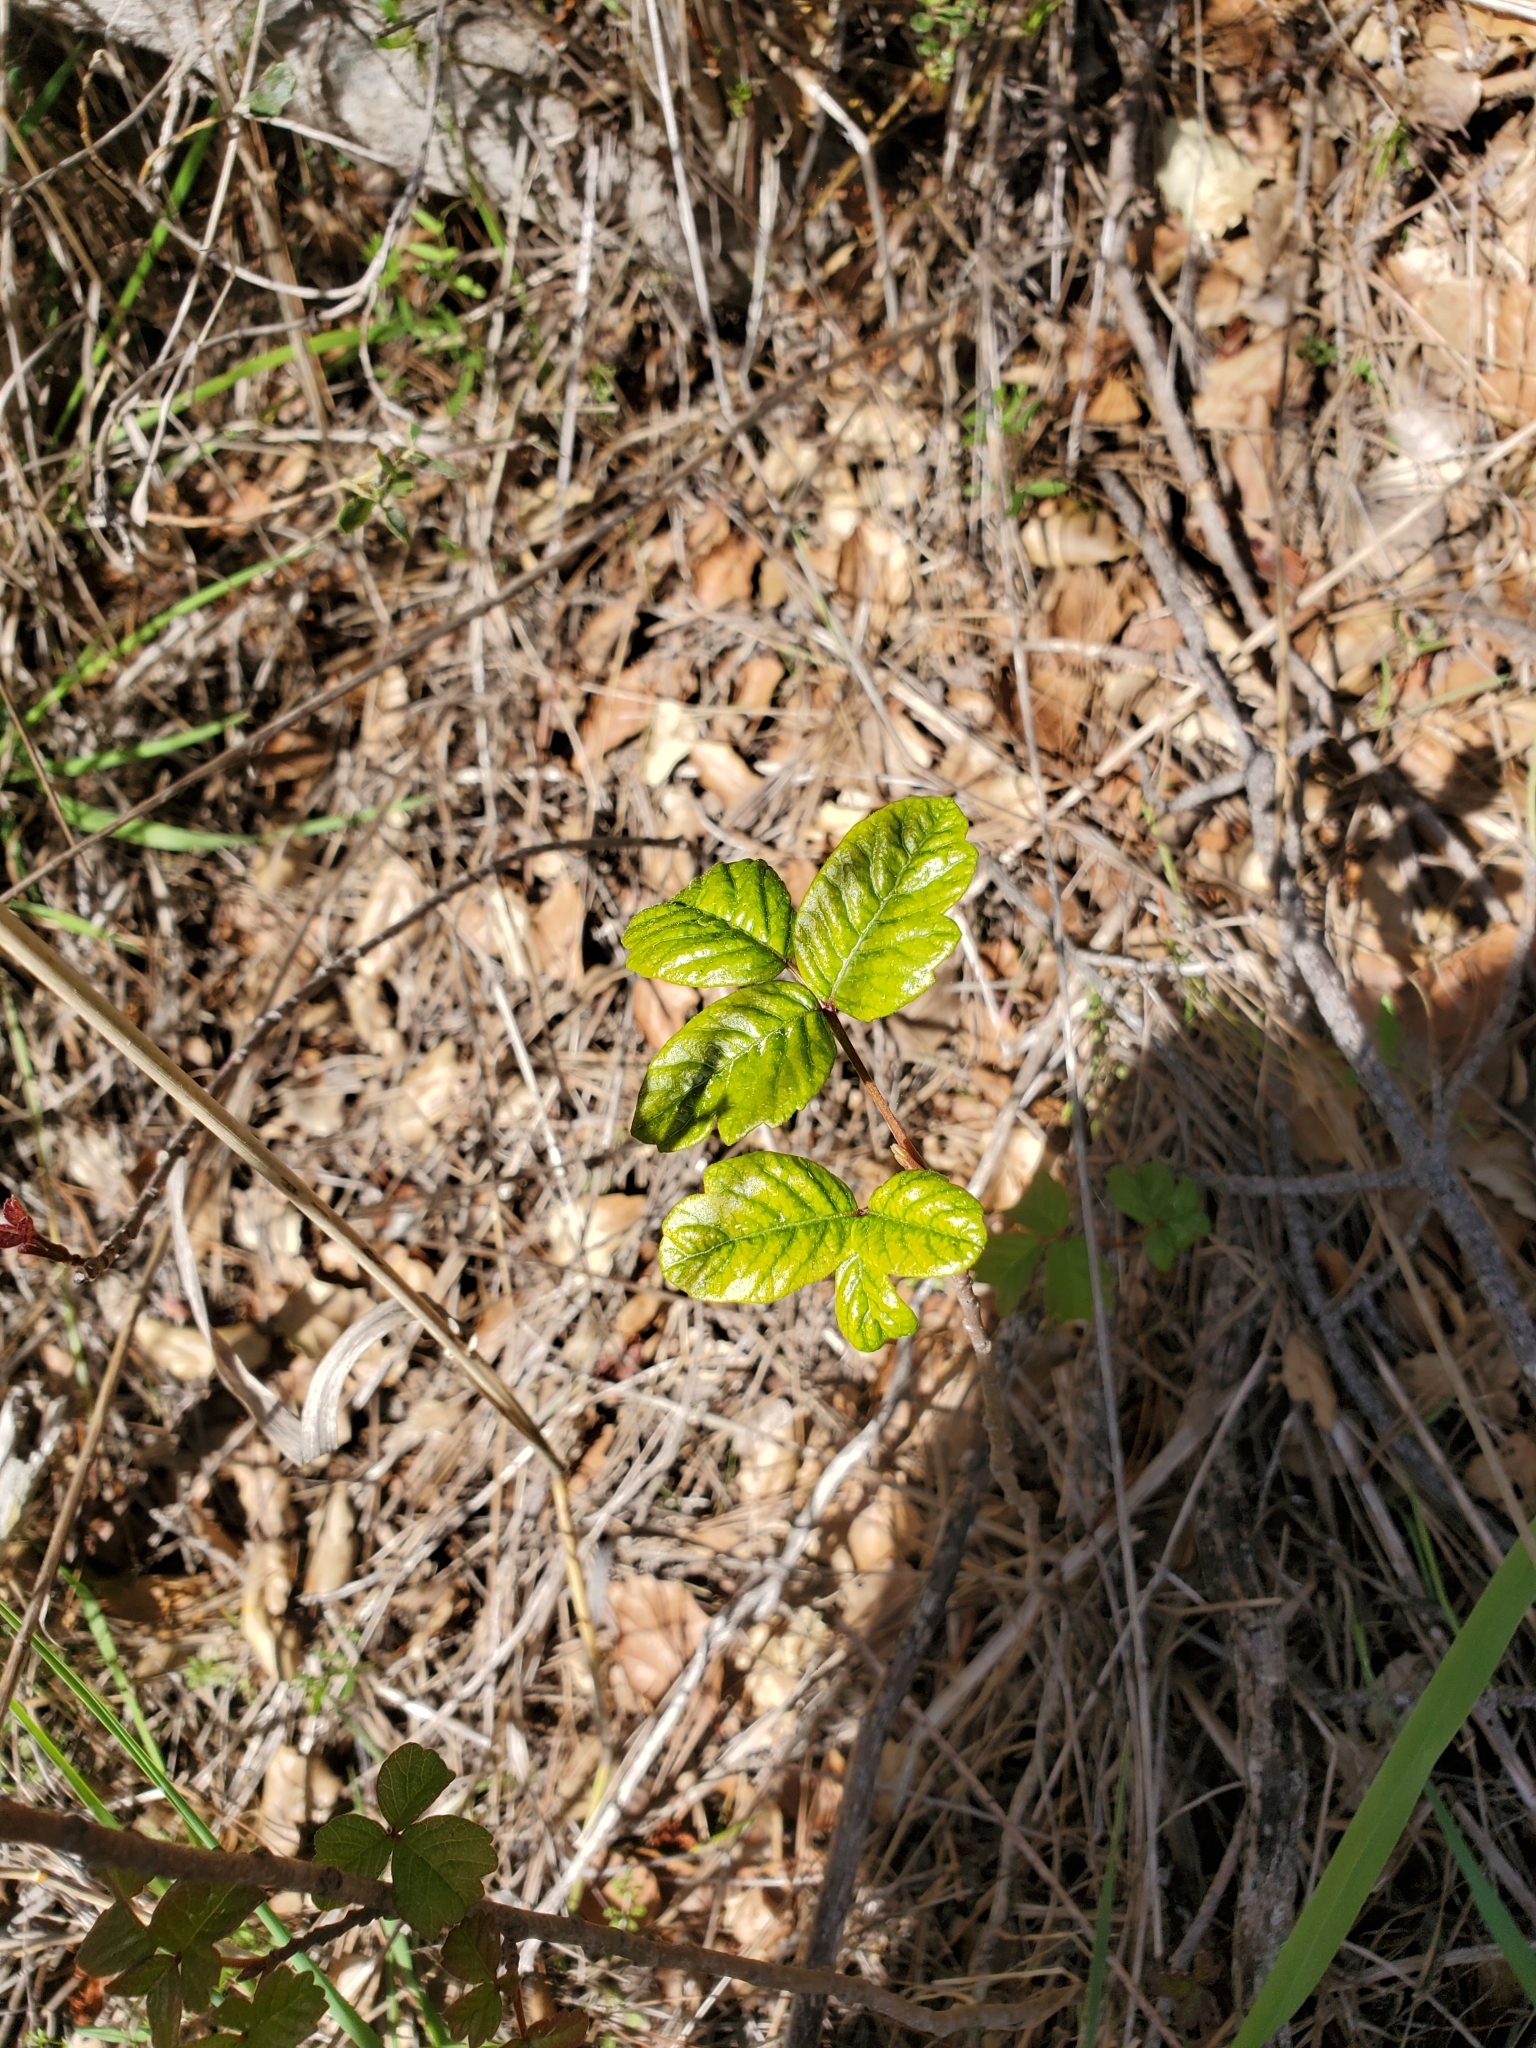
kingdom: Plantae
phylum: Tracheophyta
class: Magnoliopsida
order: Sapindales
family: Anacardiaceae
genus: Toxicodendron
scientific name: Toxicodendron diversilobum
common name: Pacific poison-oak
